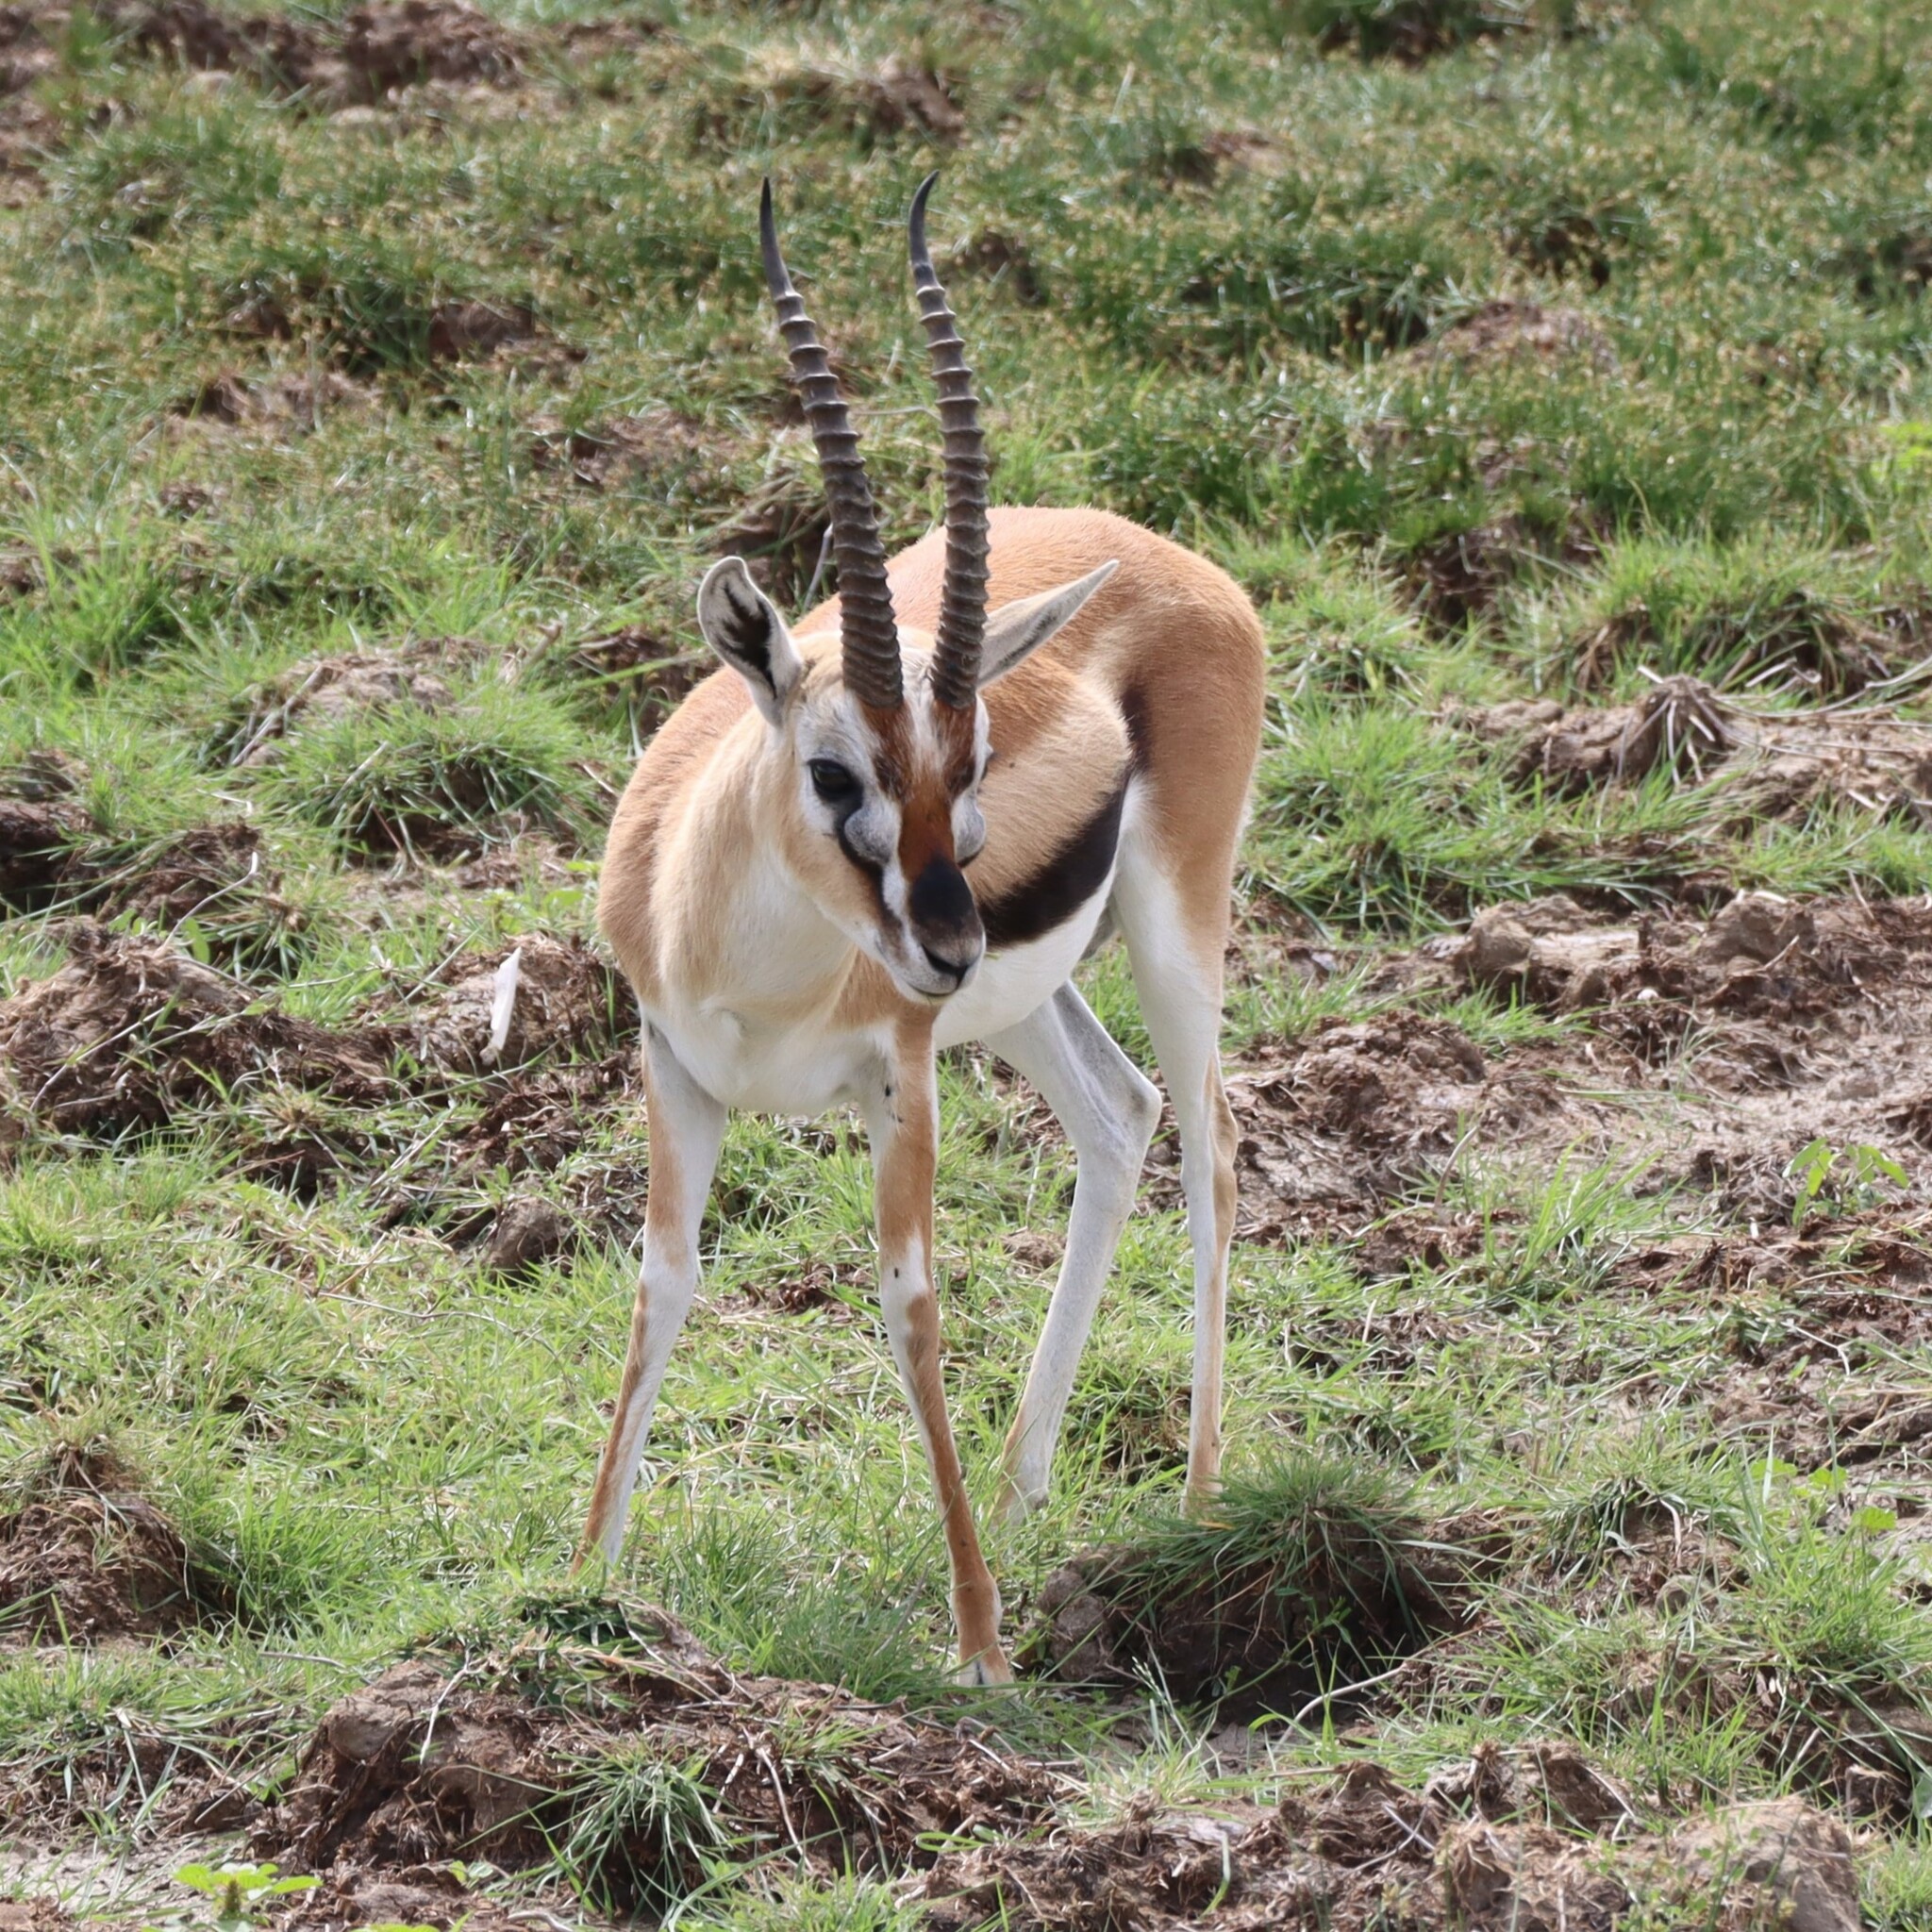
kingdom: Animalia
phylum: Chordata
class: Mammalia
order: Artiodactyla
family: Bovidae
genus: Eudorcas
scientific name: Eudorcas thomsonii
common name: Thomson's gazelle
